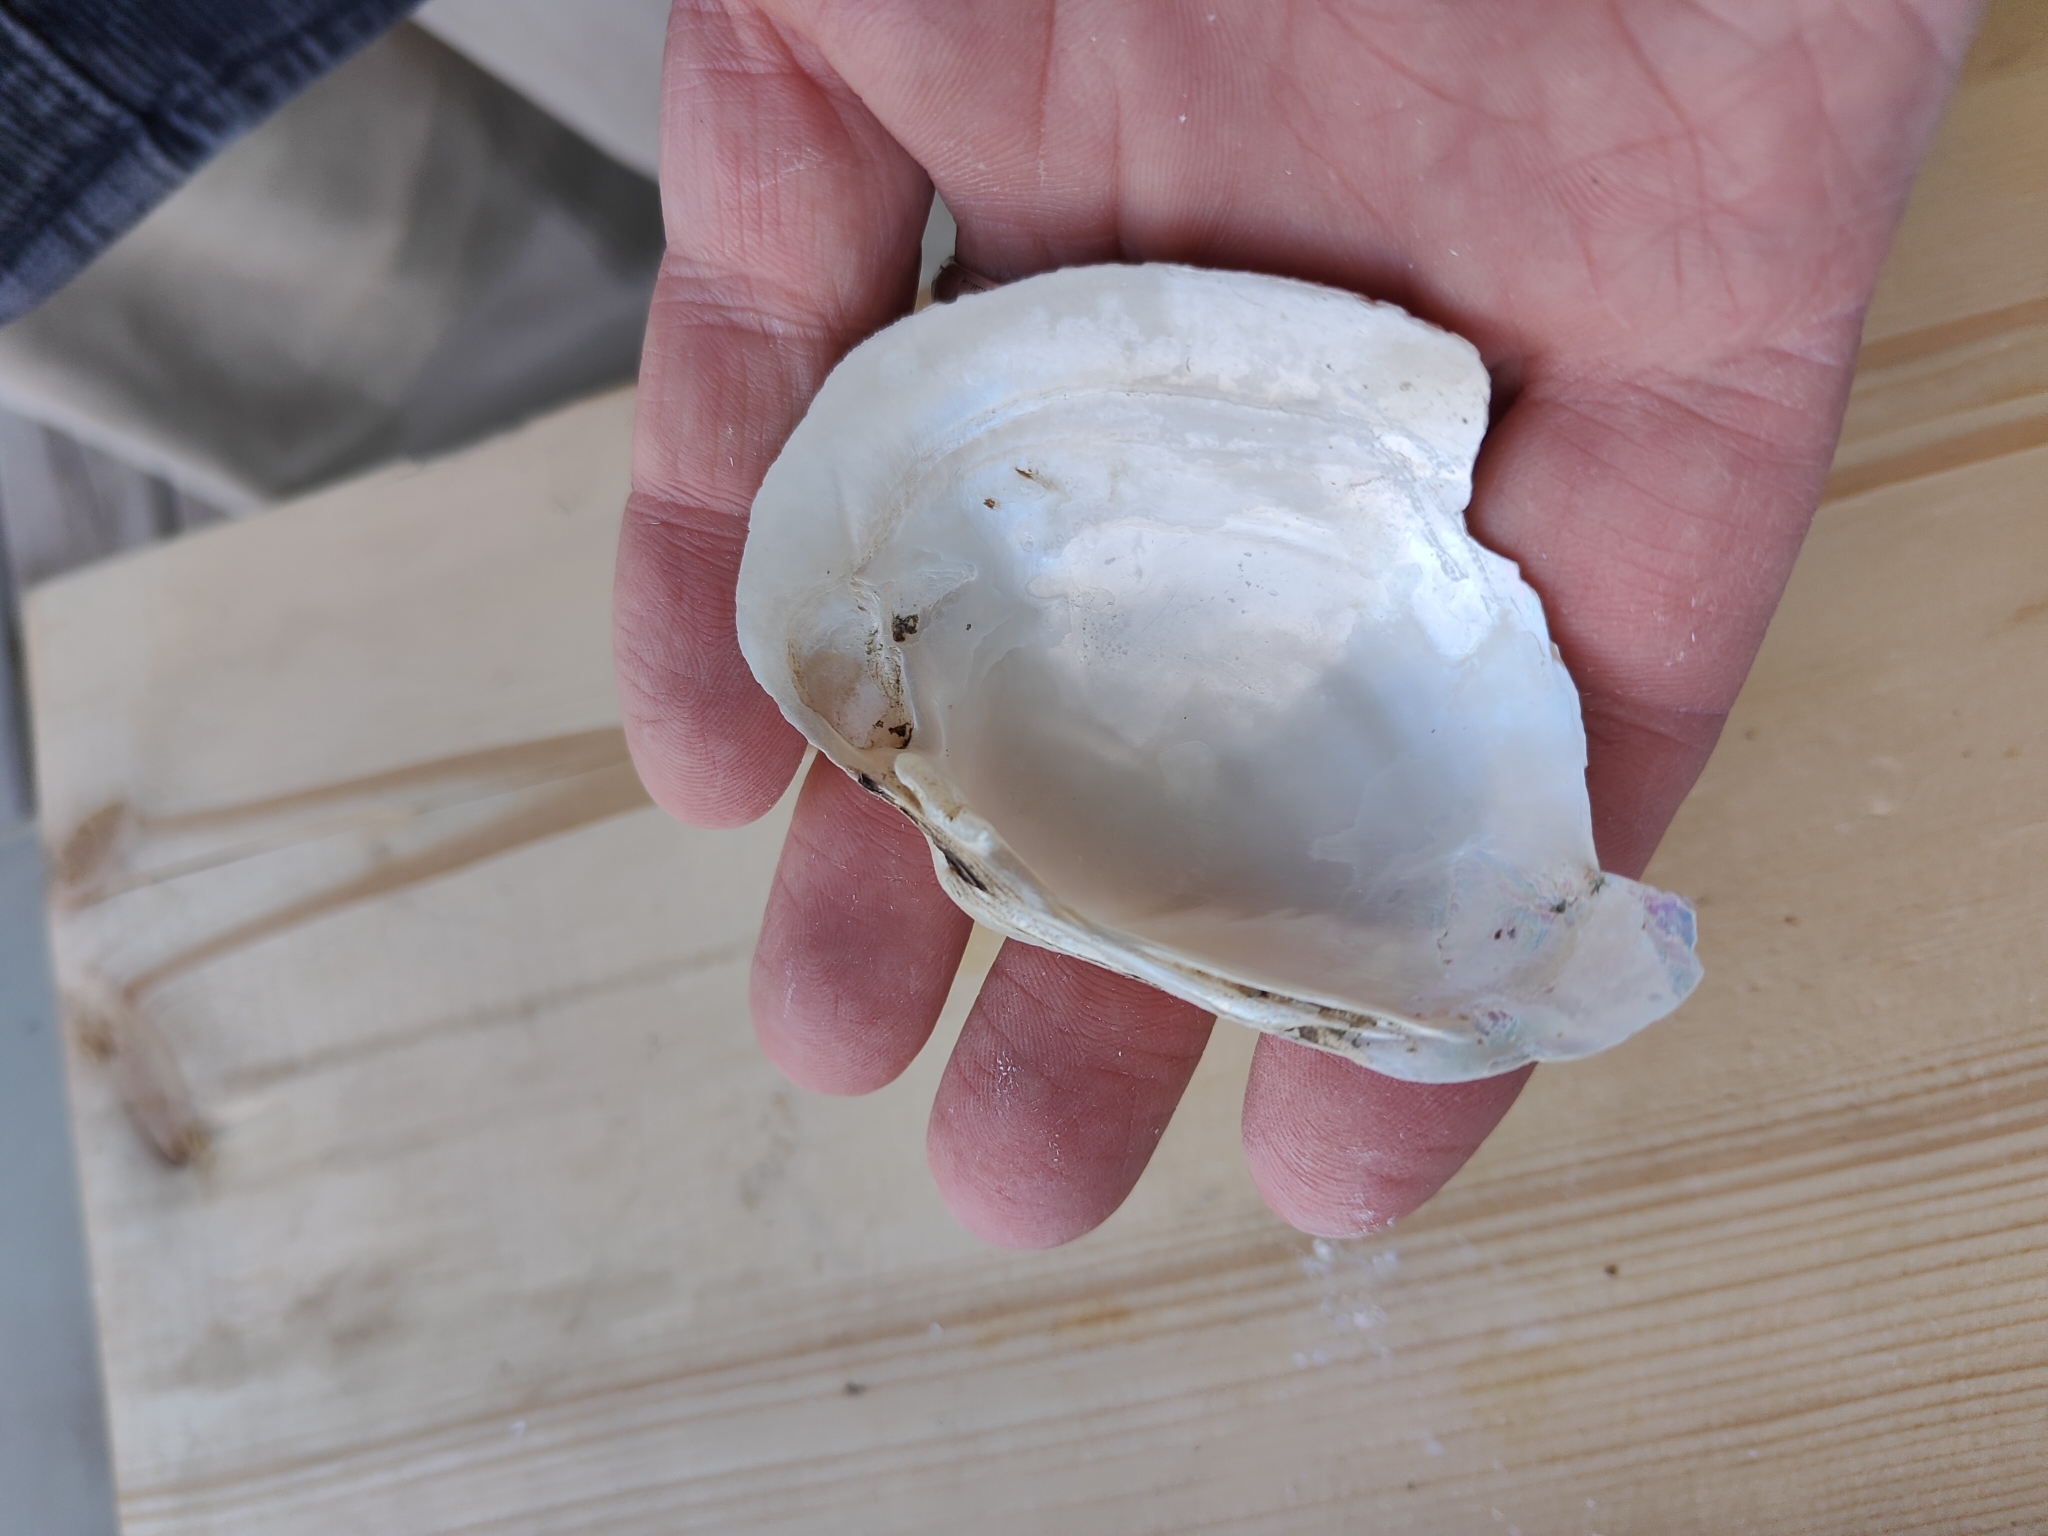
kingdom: Animalia
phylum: Mollusca
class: Bivalvia
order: Unionida
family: Unionidae
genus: Lampsilis
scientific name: Lampsilis cardium
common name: Plain pocketbook
